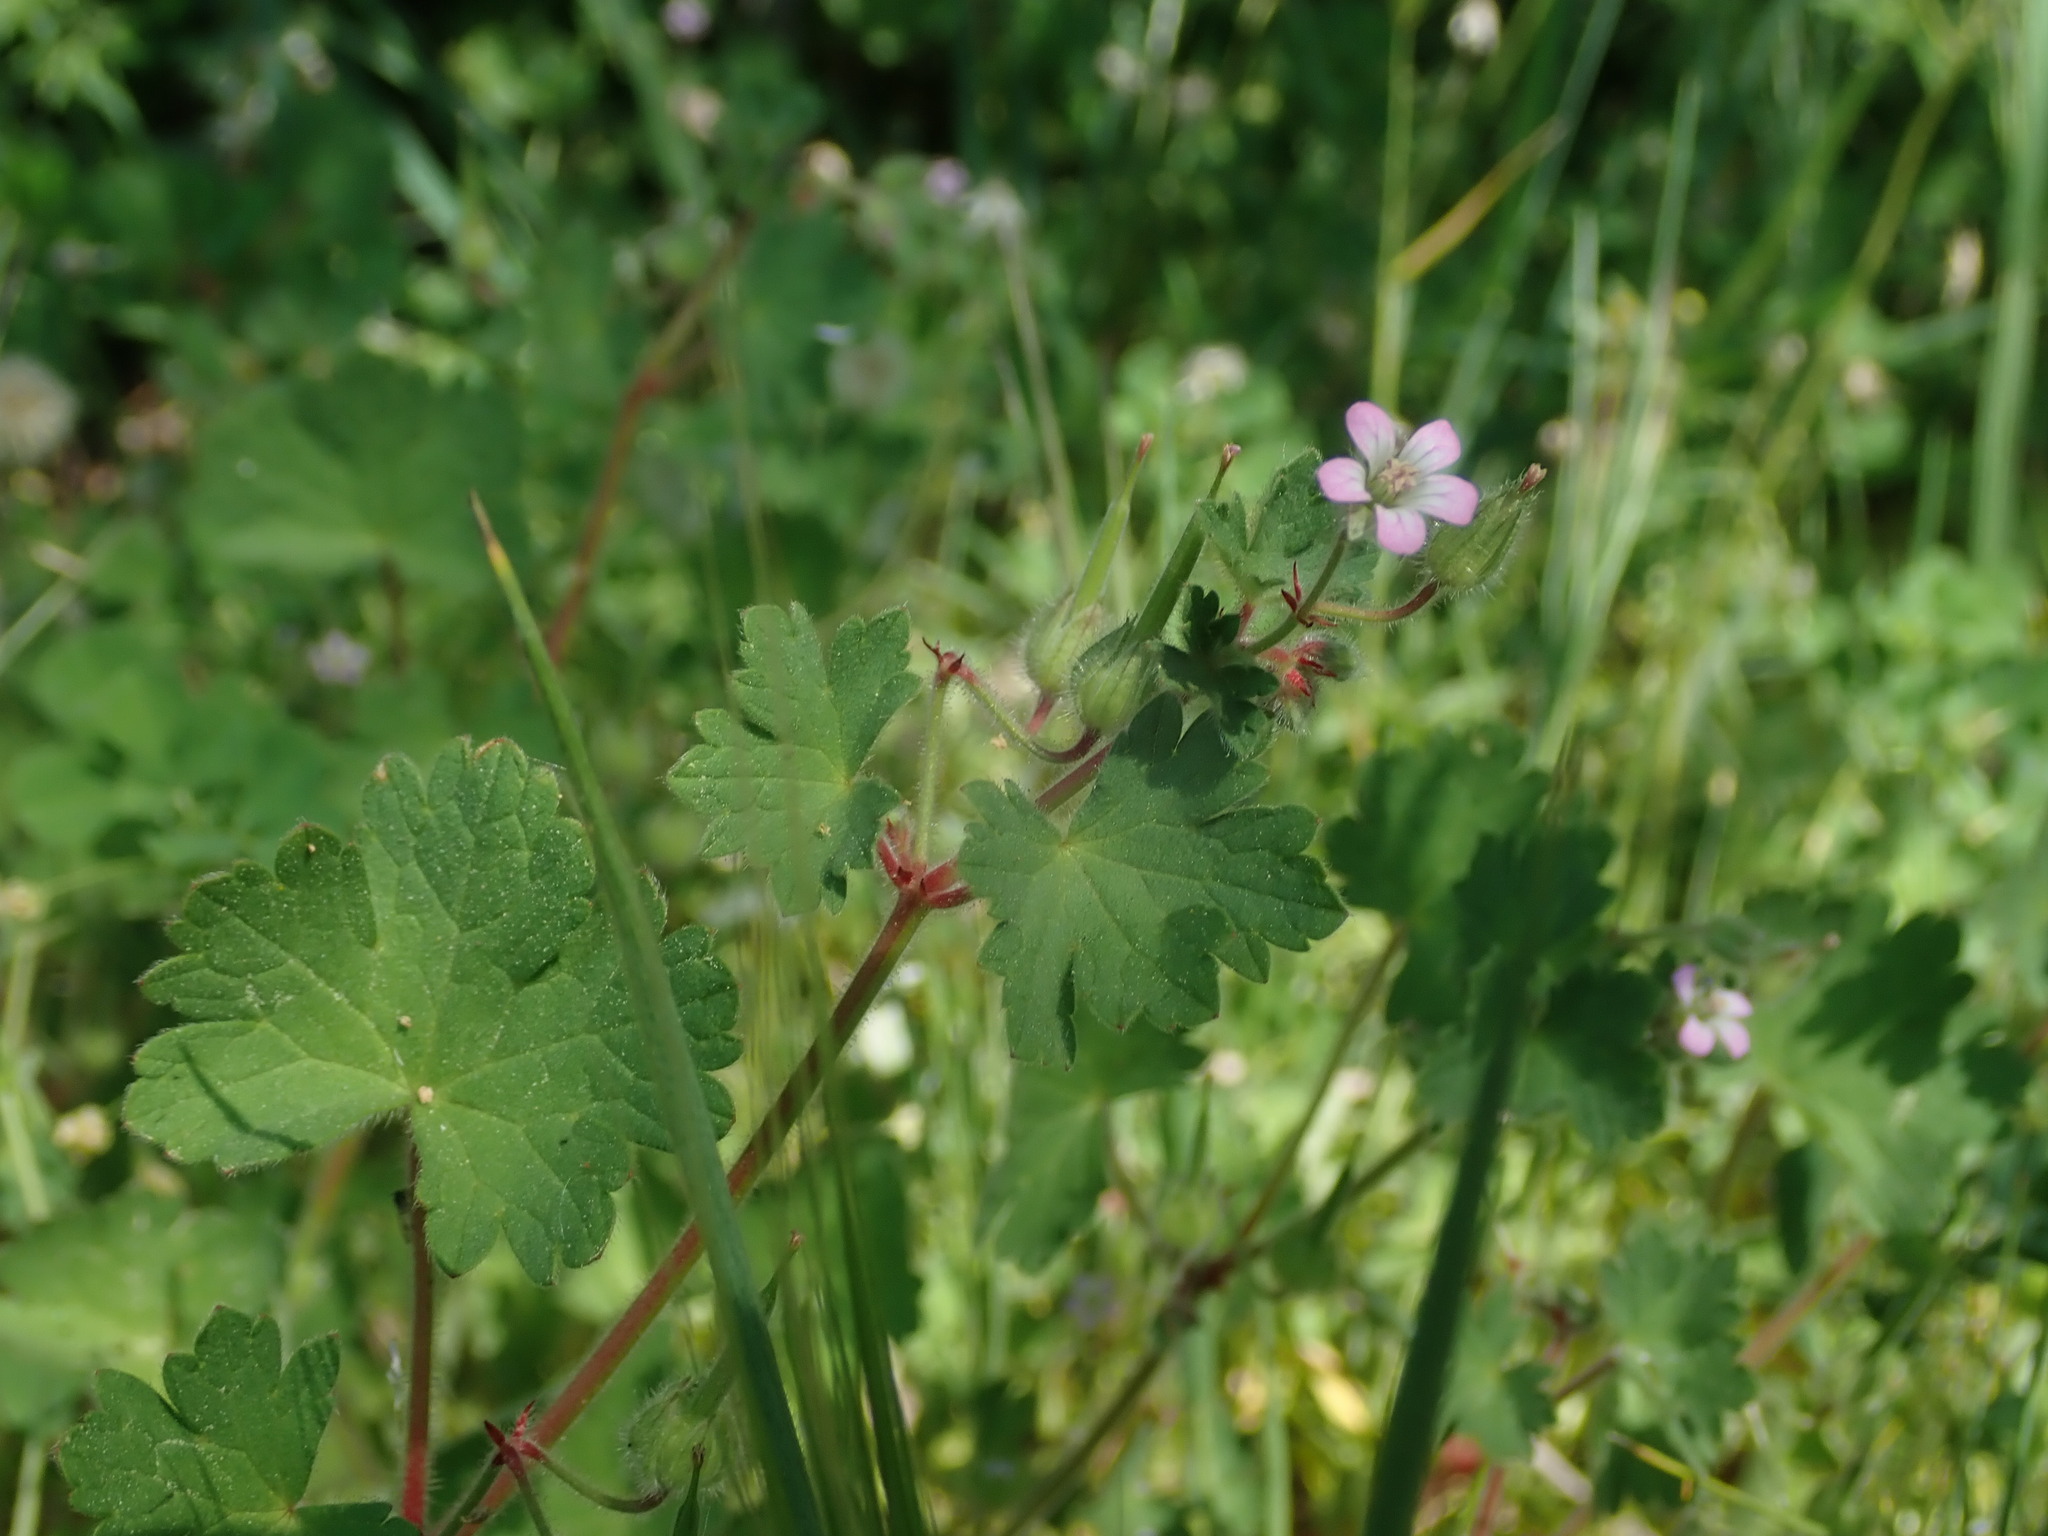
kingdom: Plantae
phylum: Tracheophyta
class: Magnoliopsida
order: Geraniales
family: Geraniaceae
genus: Geranium
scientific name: Geranium rotundifolium
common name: Round-leaved crane's-bill
